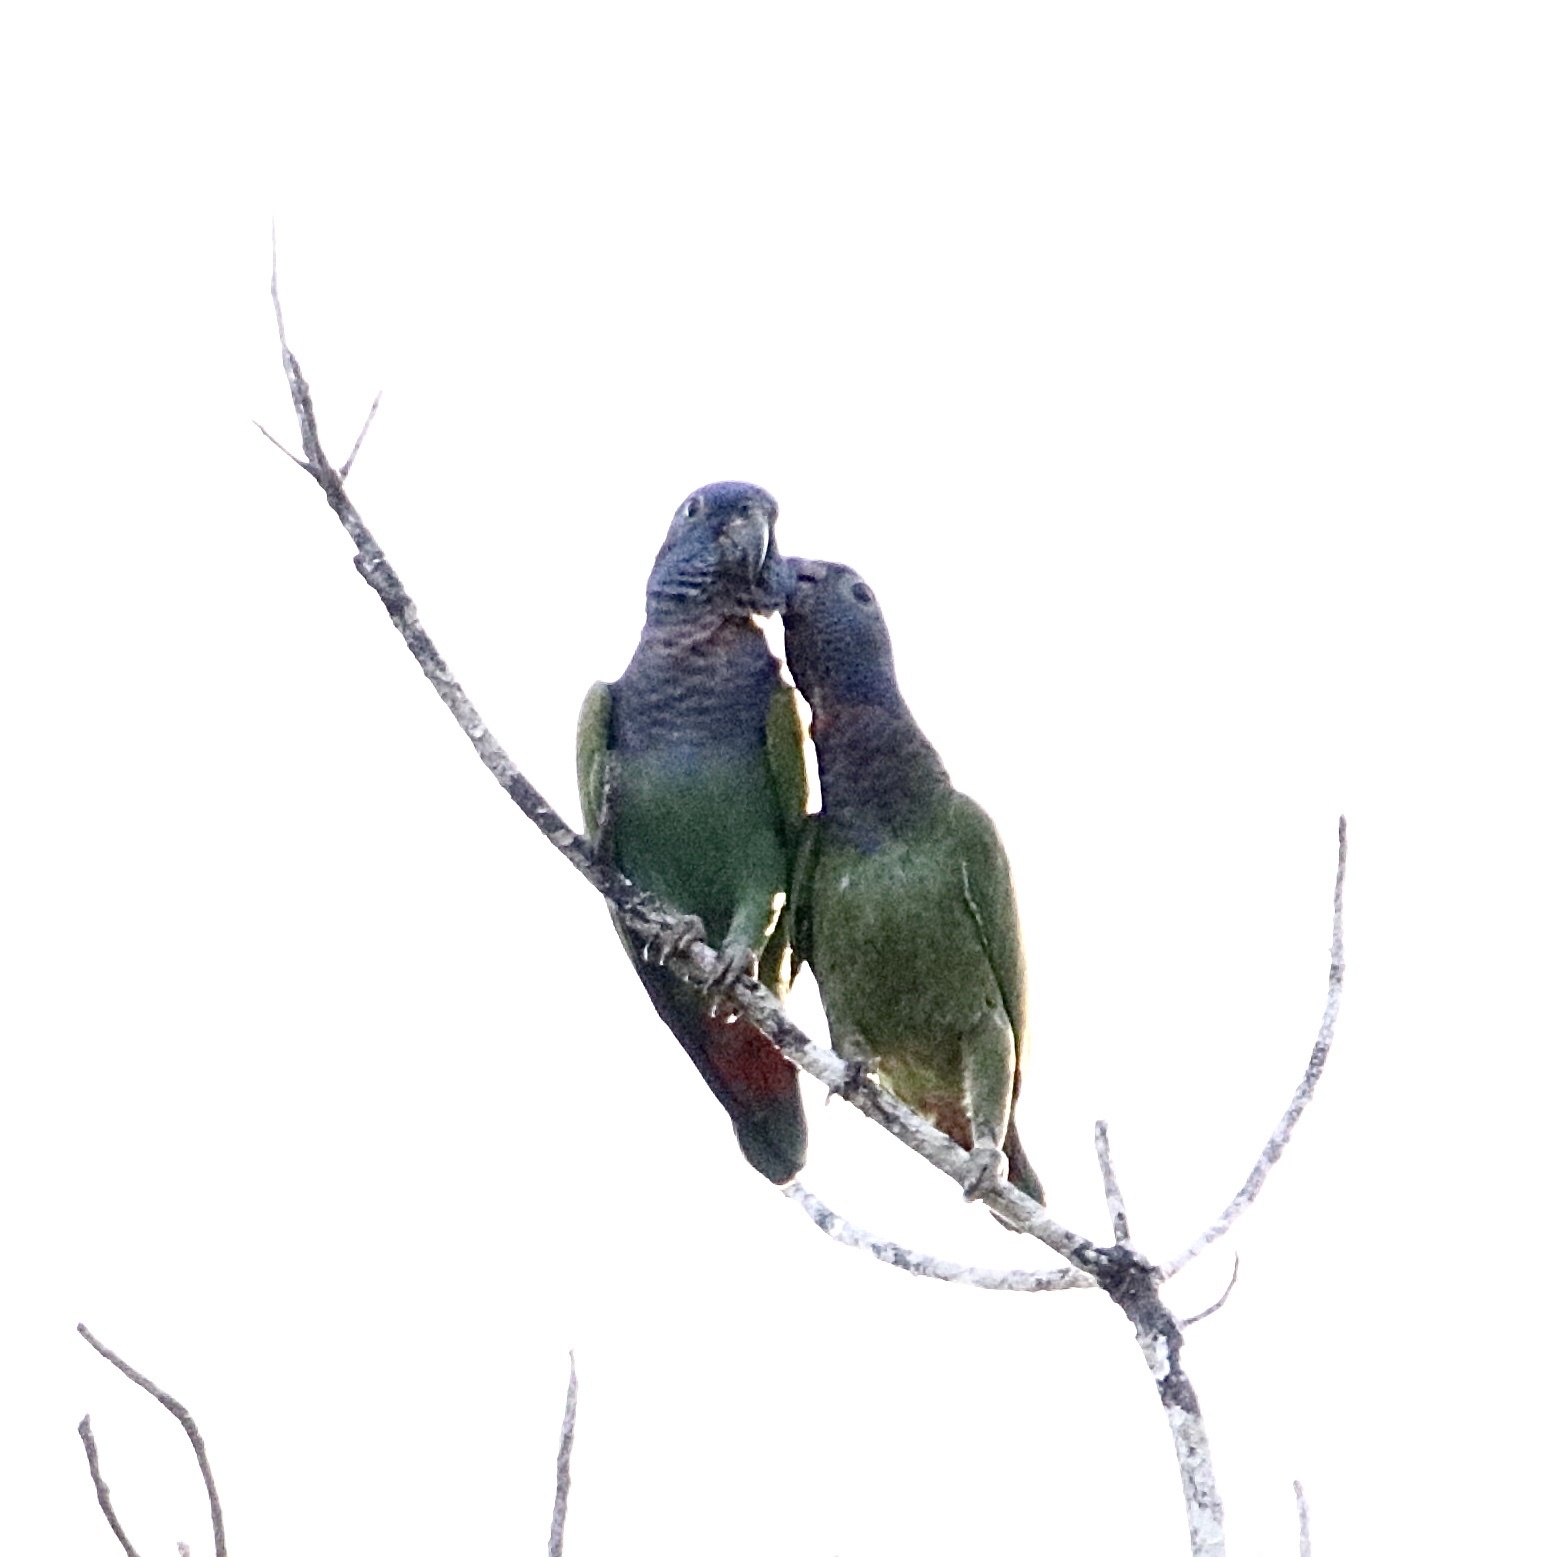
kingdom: Animalia
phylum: Chordata
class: Aves
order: Psittaciformes
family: Psittacidae
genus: Pionus
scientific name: Pionus menstruus
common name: Blue-headed parrot
